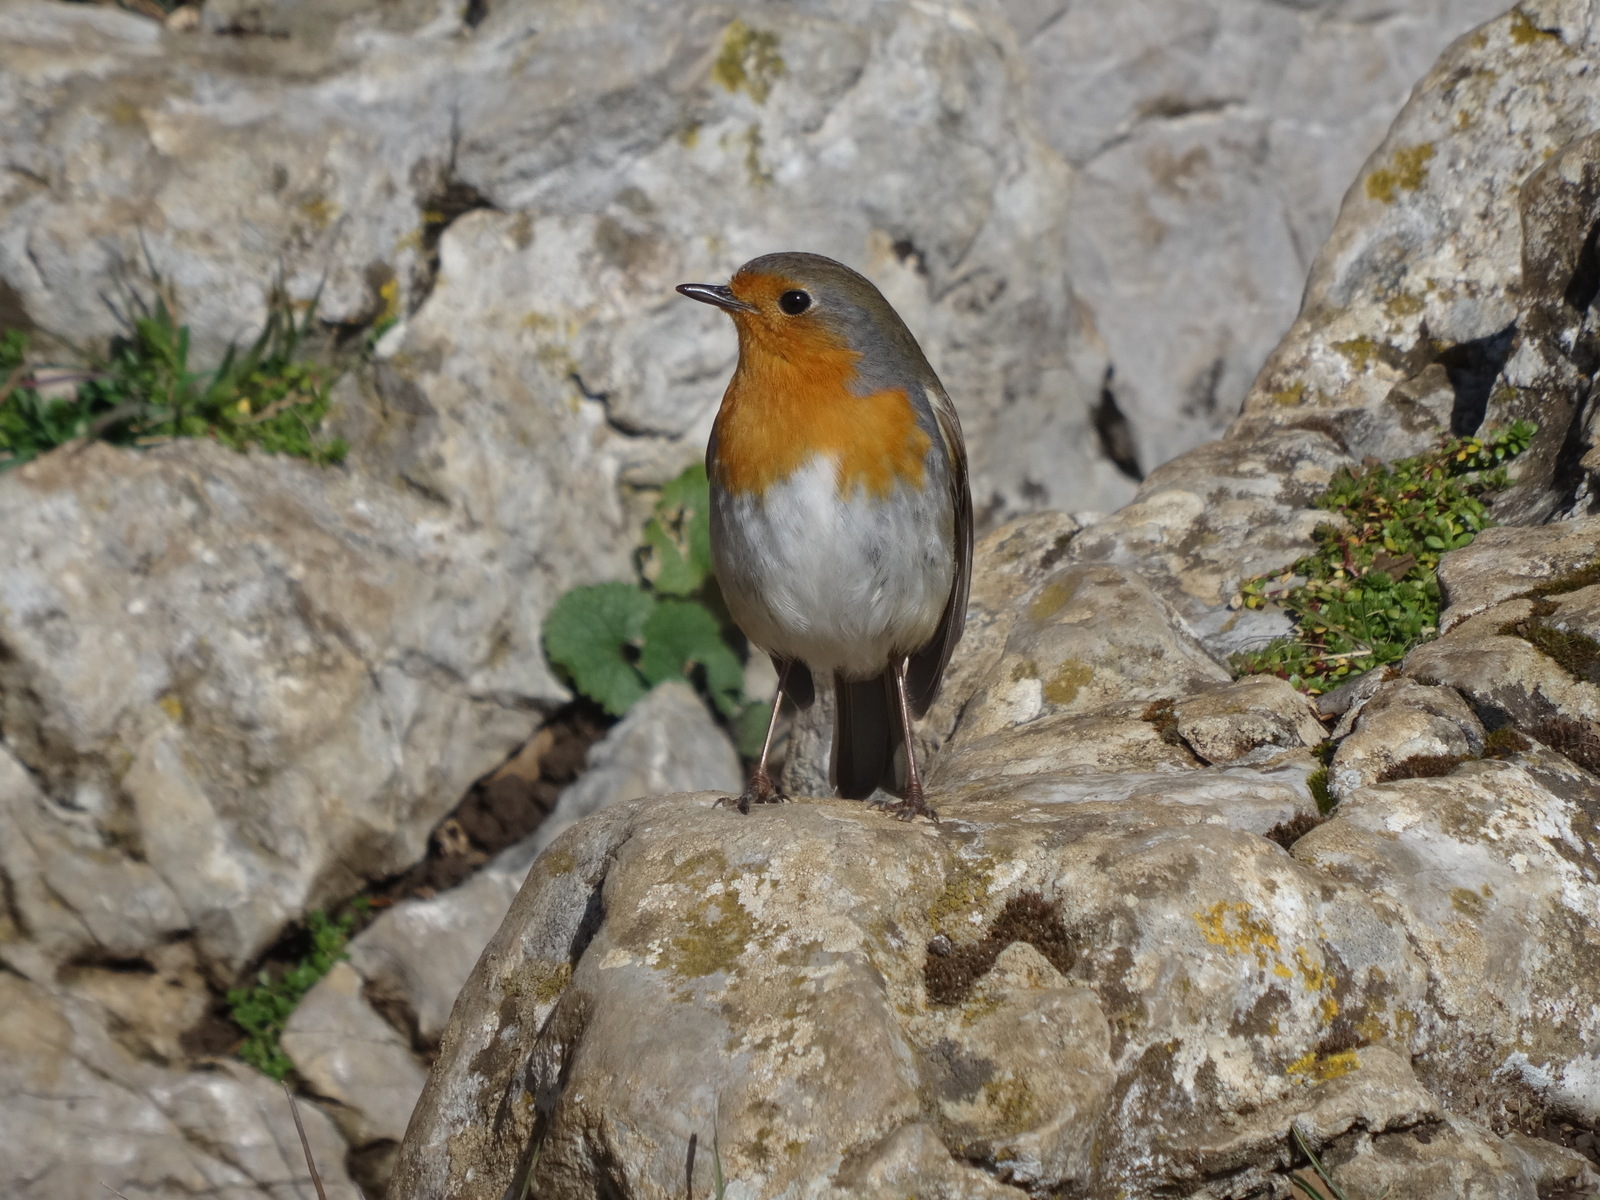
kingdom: Animalia
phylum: Chordata
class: Aves
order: Passeriformes
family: Muscicapidae
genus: Erithacus
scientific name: Erithacus rubecula
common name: European robin
